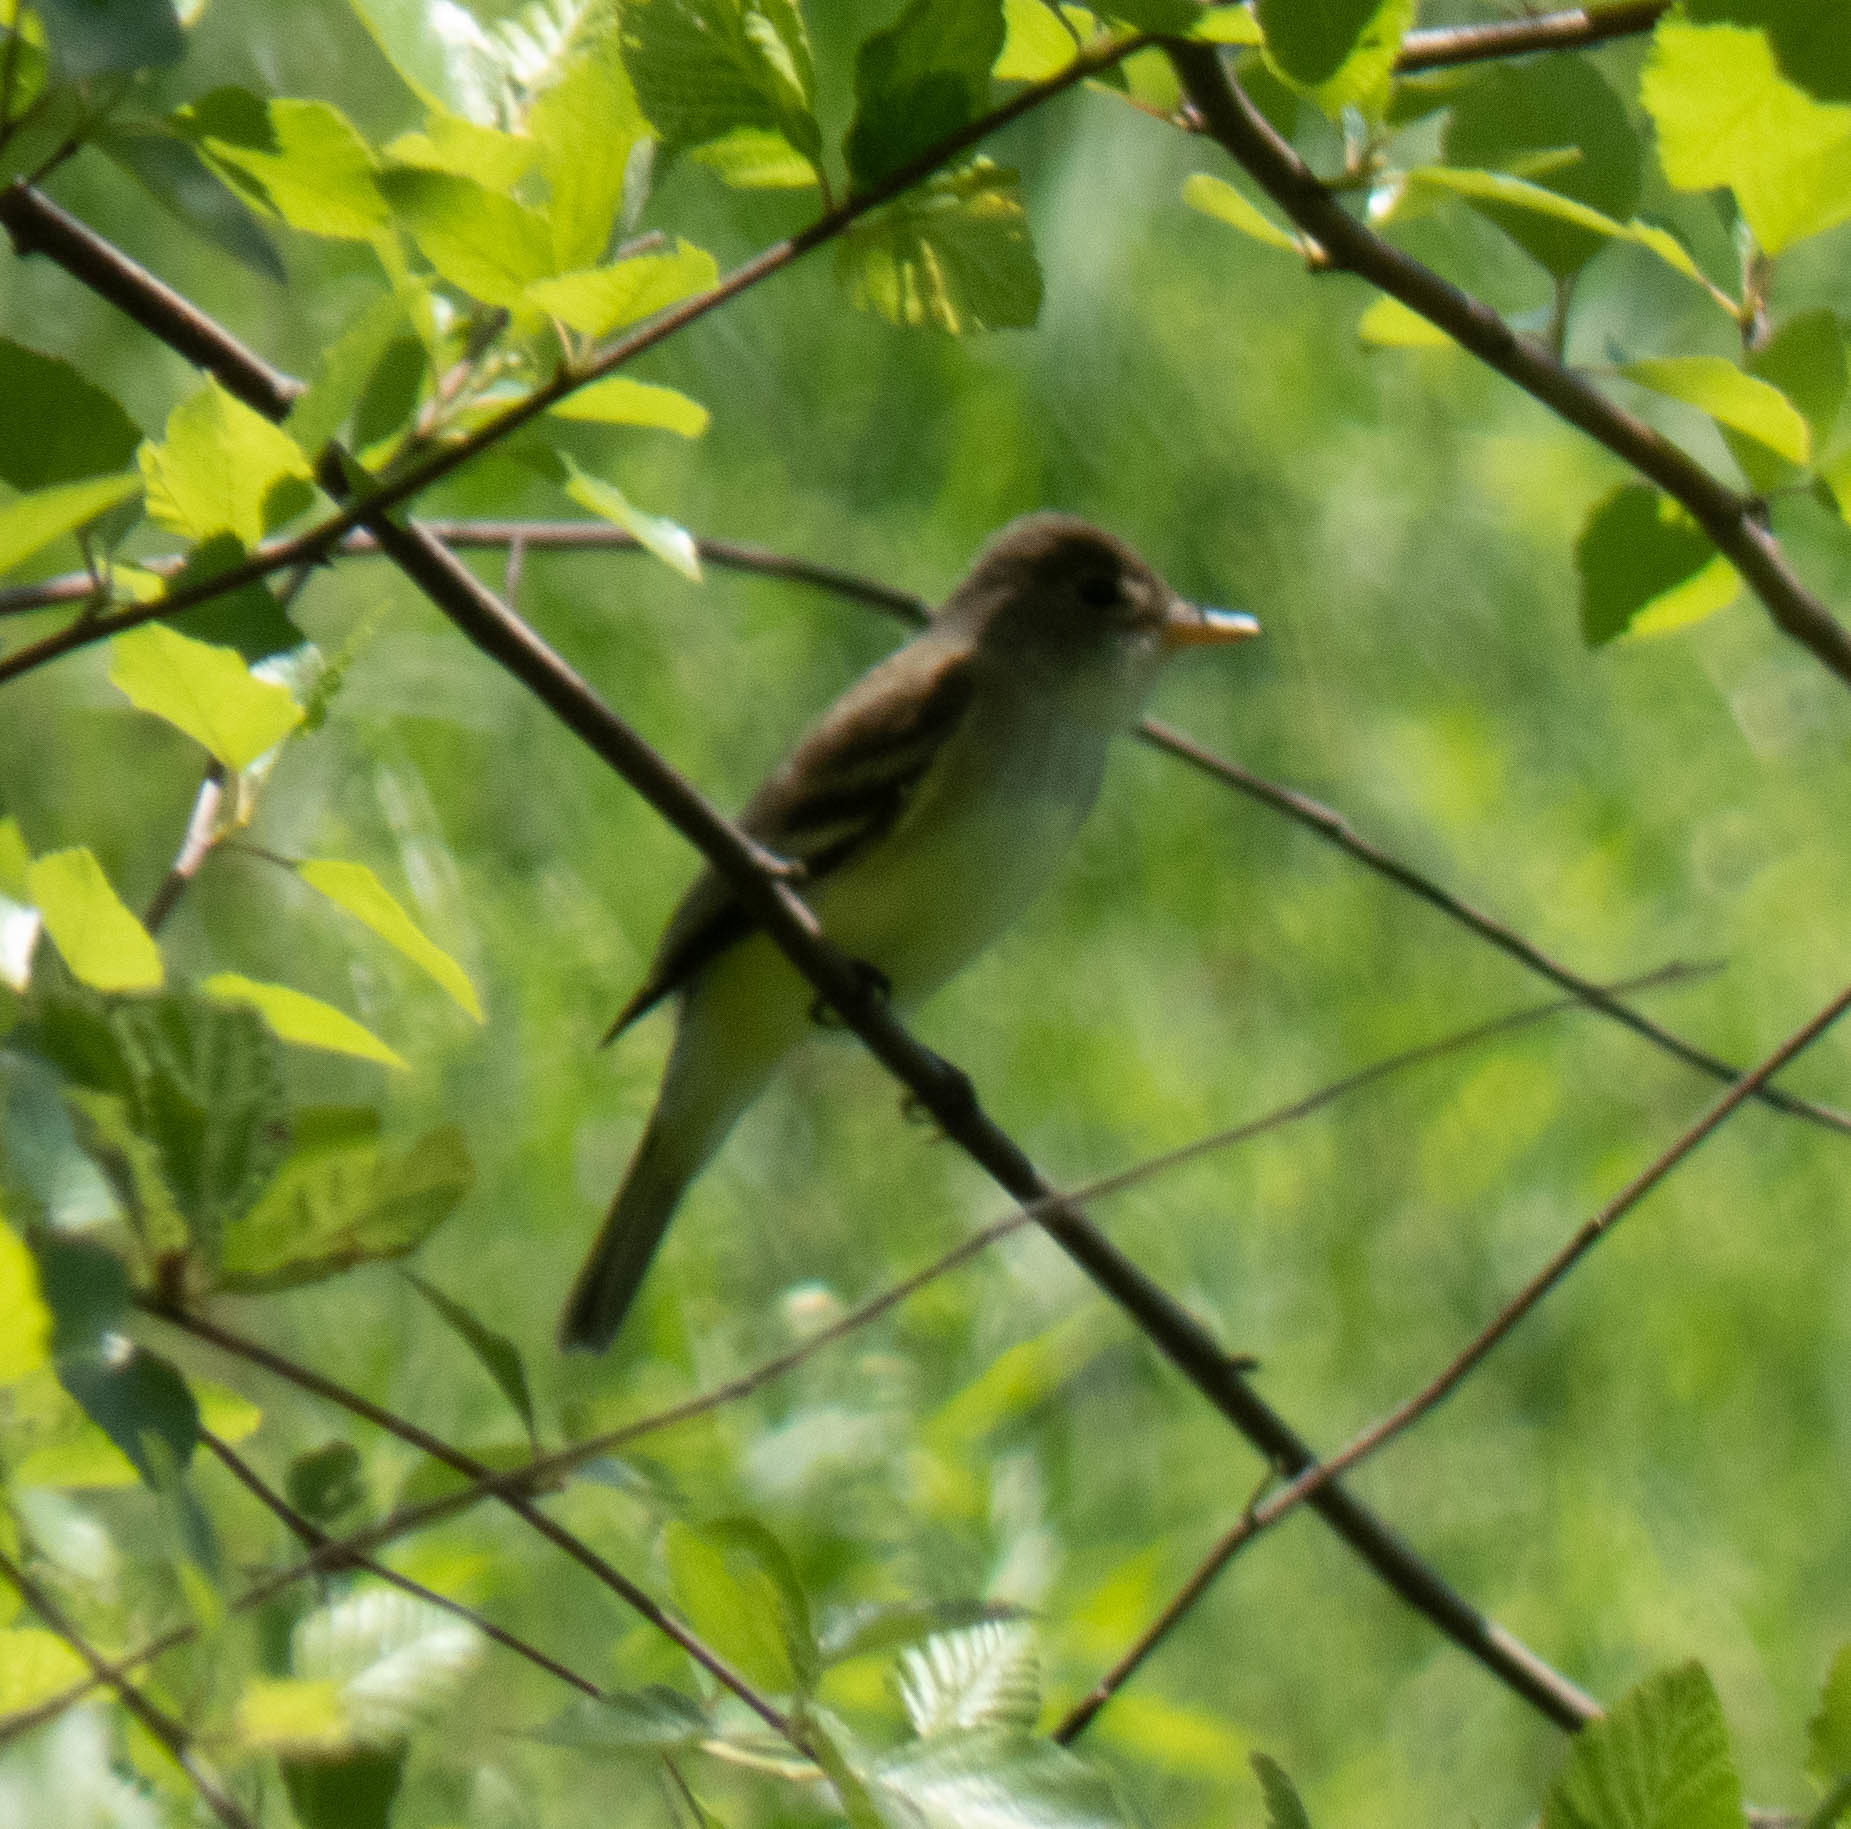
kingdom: Animalia
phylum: Chordata
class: Aves
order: Passeriformes
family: Tyrannidae
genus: Empidonax
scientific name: Empidonax
